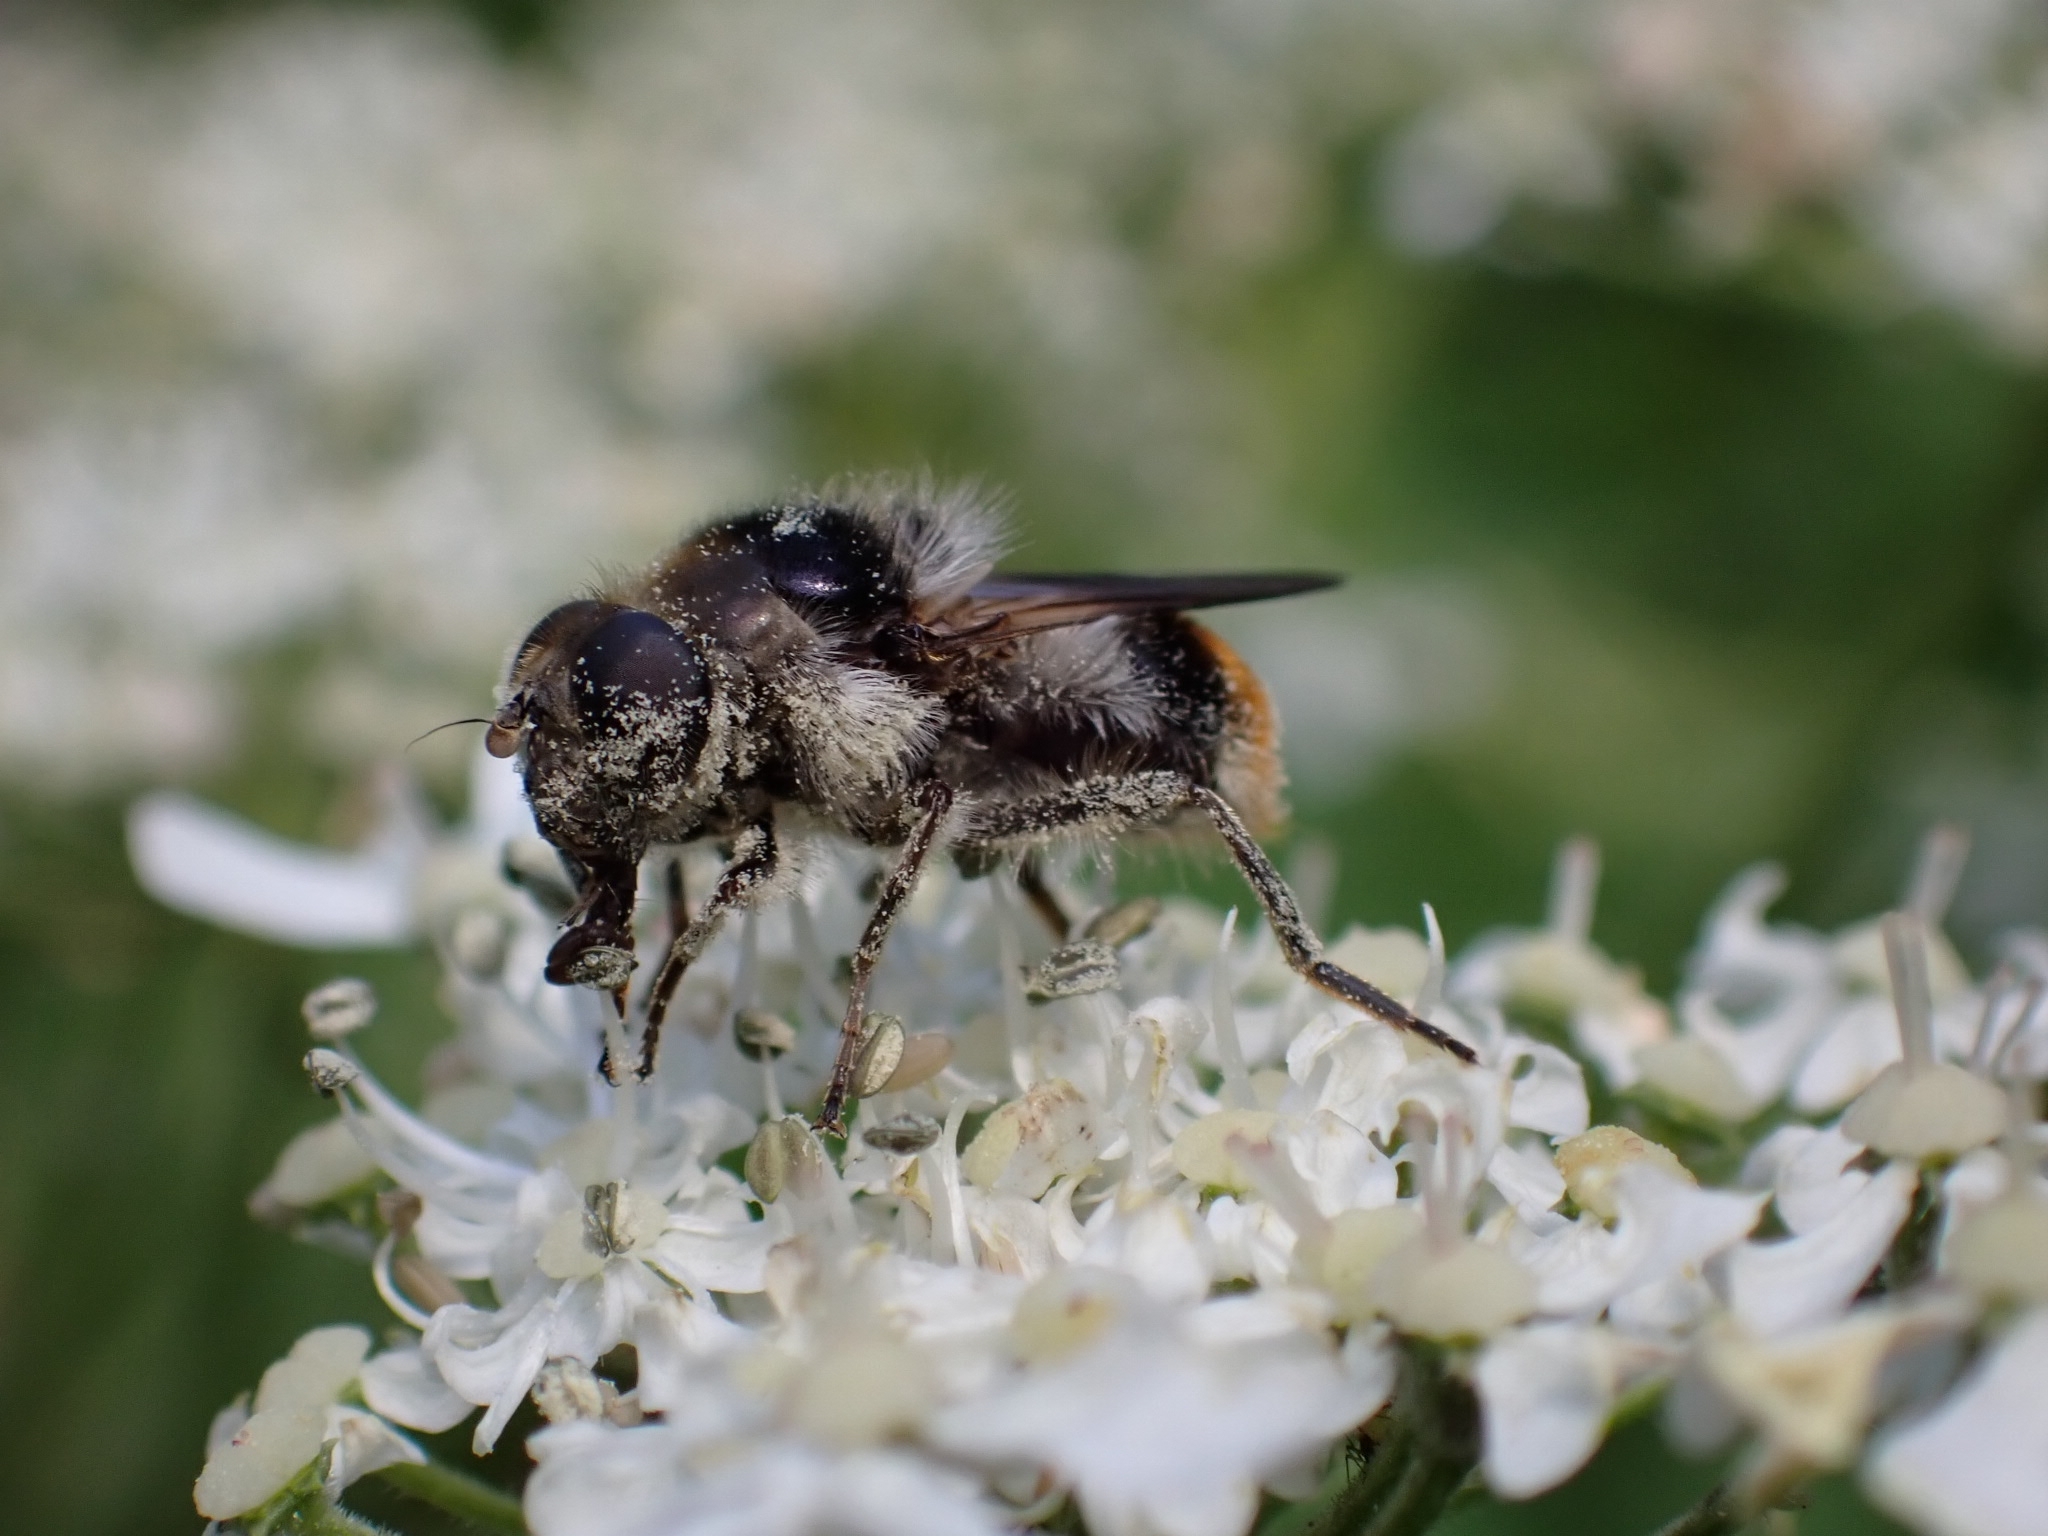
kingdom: Animalia
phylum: Arthropoda
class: Insecta
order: Diptera
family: Syrphidae
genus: Cheilosia
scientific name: Cheilosia illustrata
